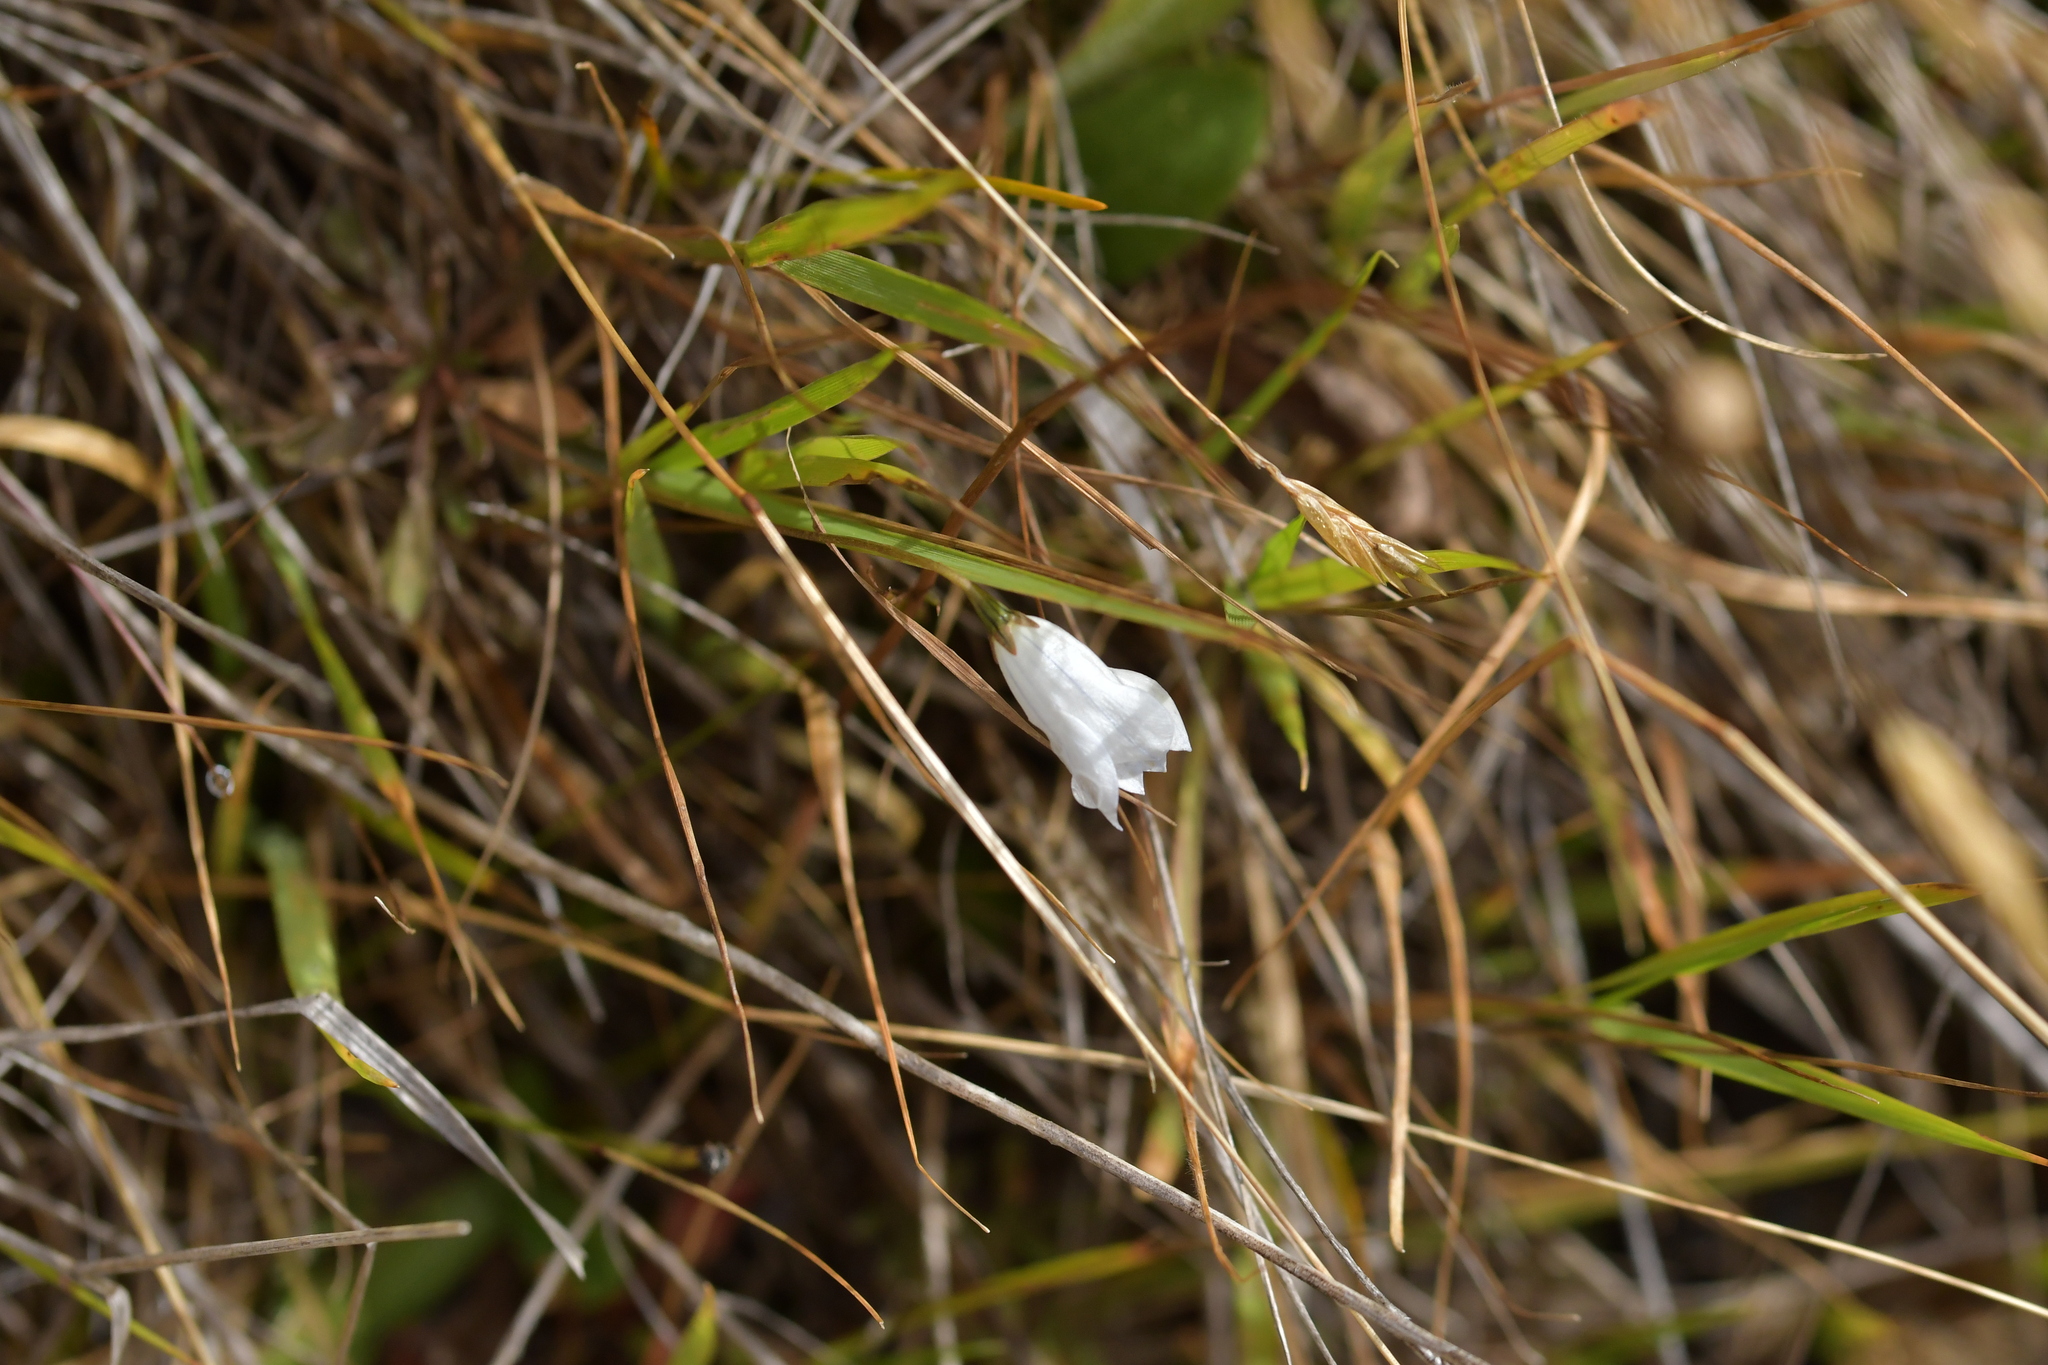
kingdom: Plantae
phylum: Tracheophyta
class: Magnoliopsida
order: Asterales
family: Campanulaceae
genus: Wahlenbergia
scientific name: Wahlenbergia albomarginata
